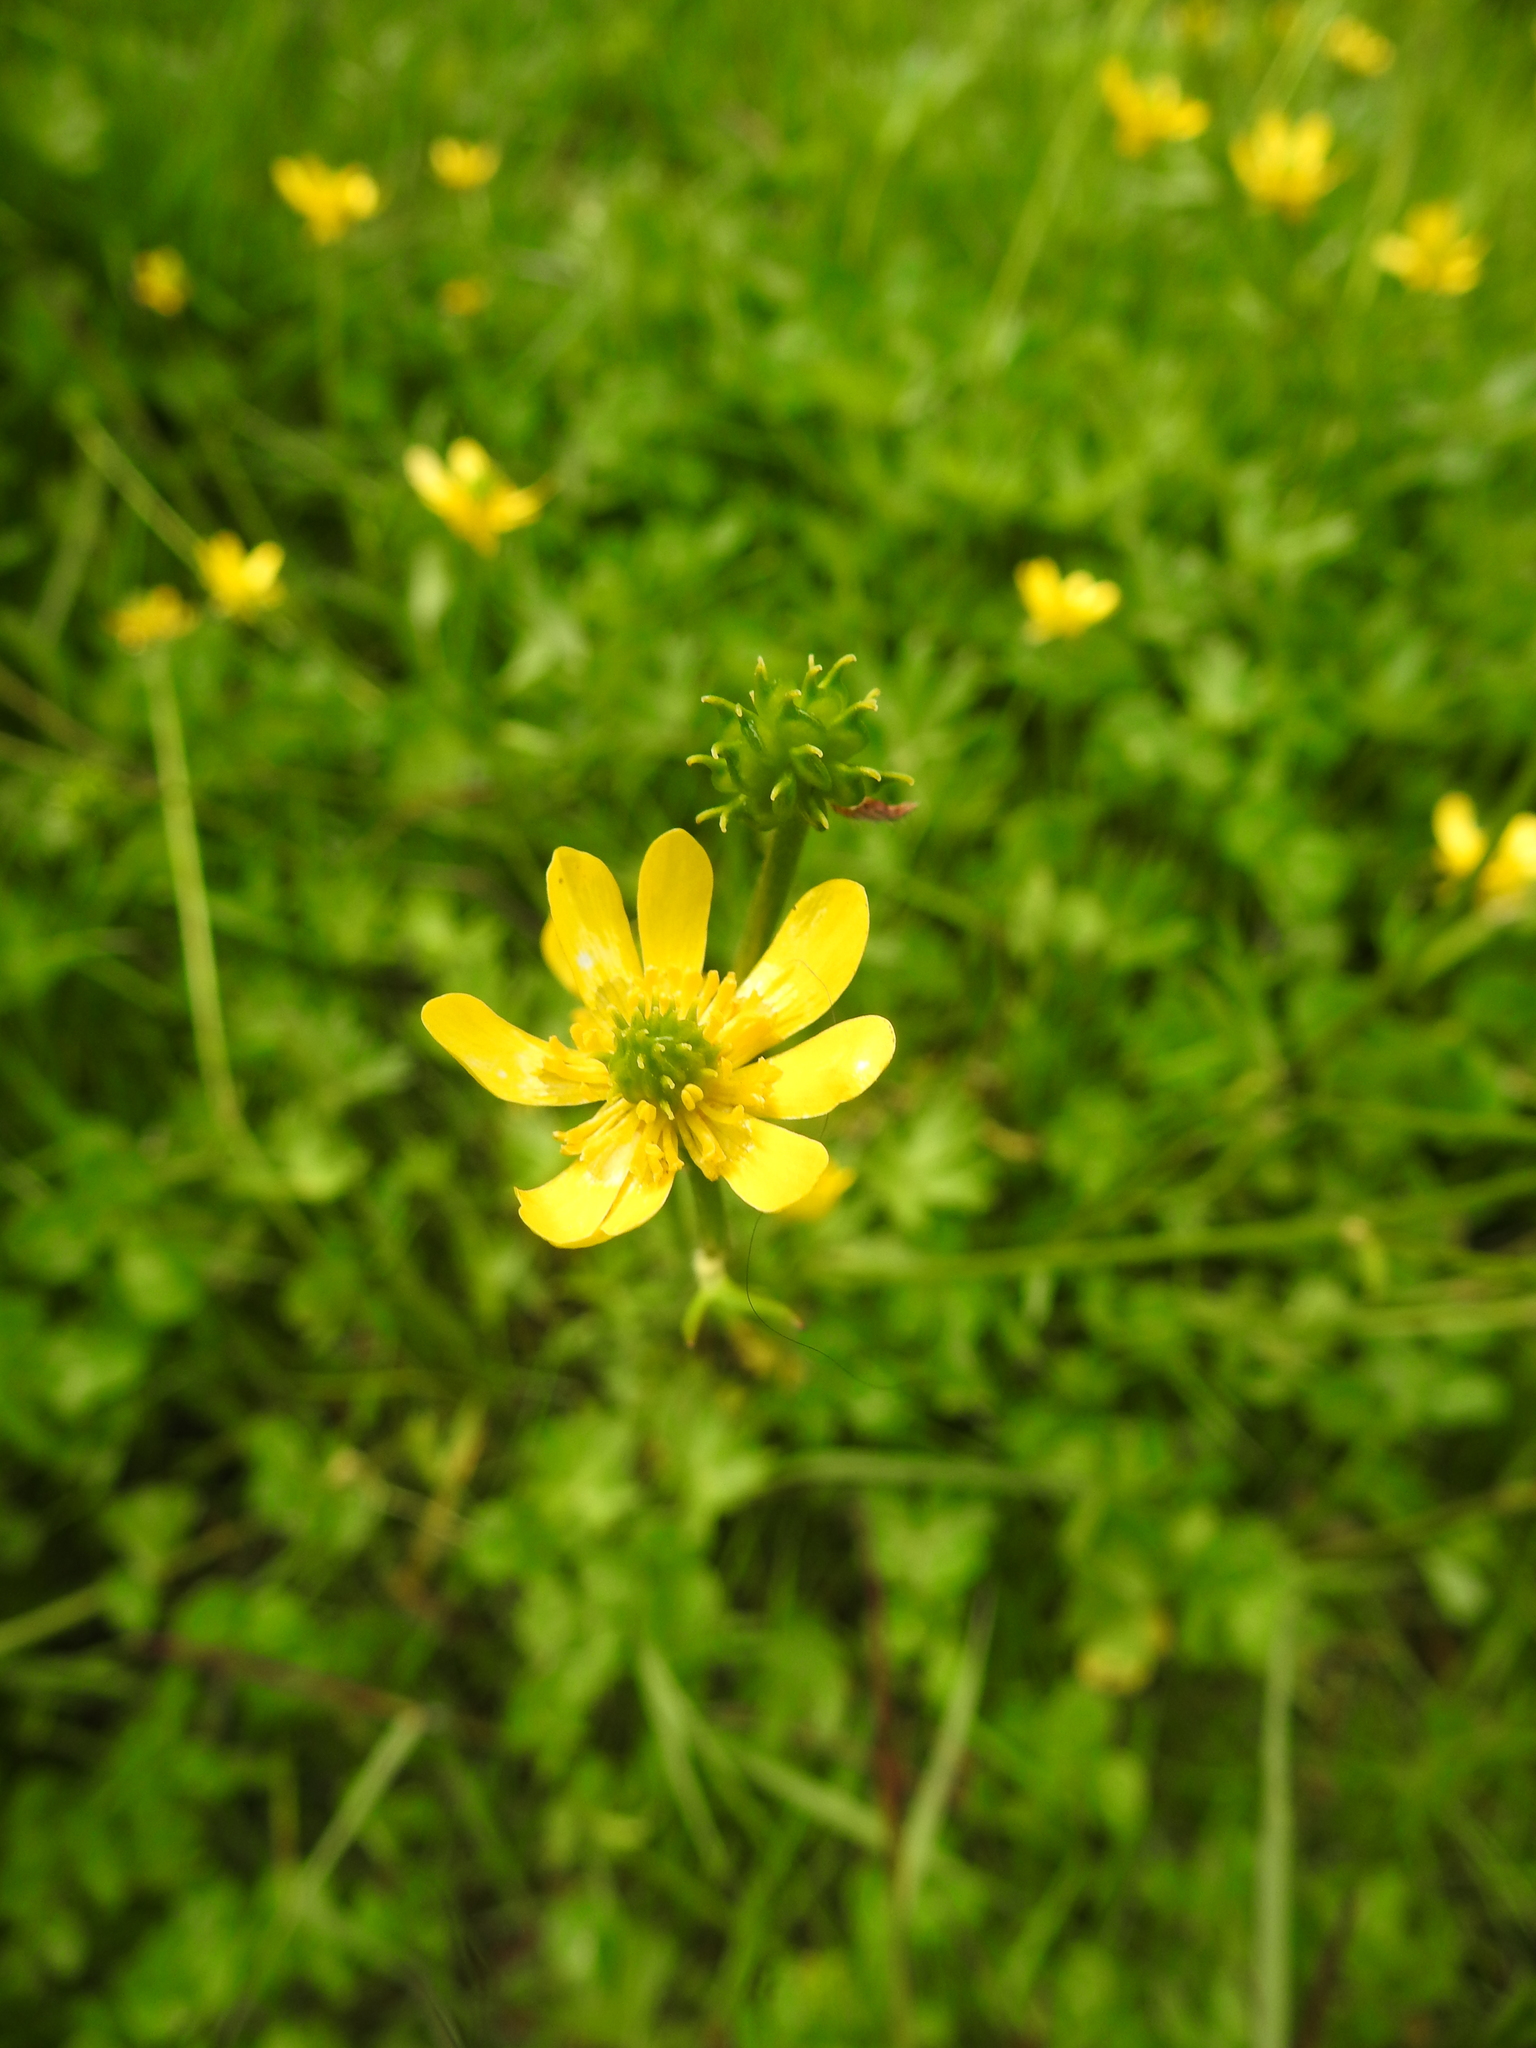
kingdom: Plantae
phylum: Tracheophyta
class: Magnoliopsida
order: Ranunculales
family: Ranunculaceae
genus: Ranunculus
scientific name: Ranunculus peduncularis
